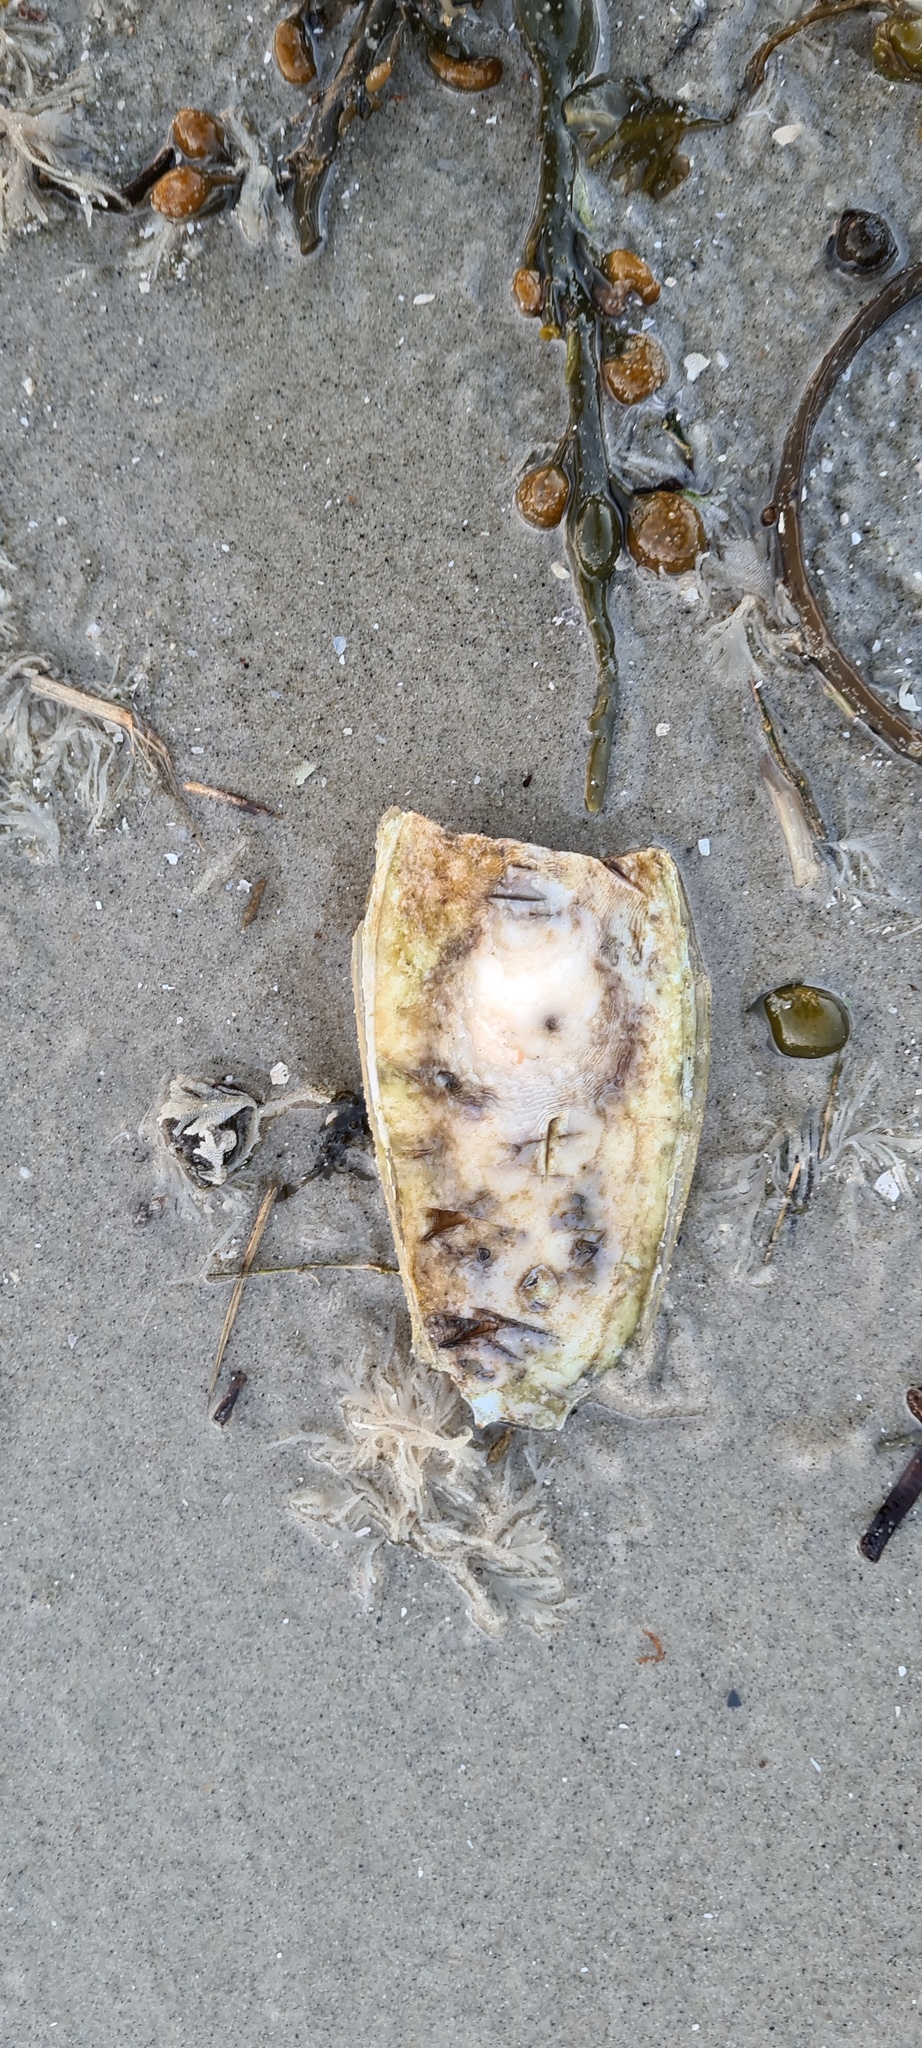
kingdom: Animalia
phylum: Mollusca
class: Cephalopoda
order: Sepiida
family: Sepiidae
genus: Sepia
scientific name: Sepia officinalis
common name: Common cuttlefish
